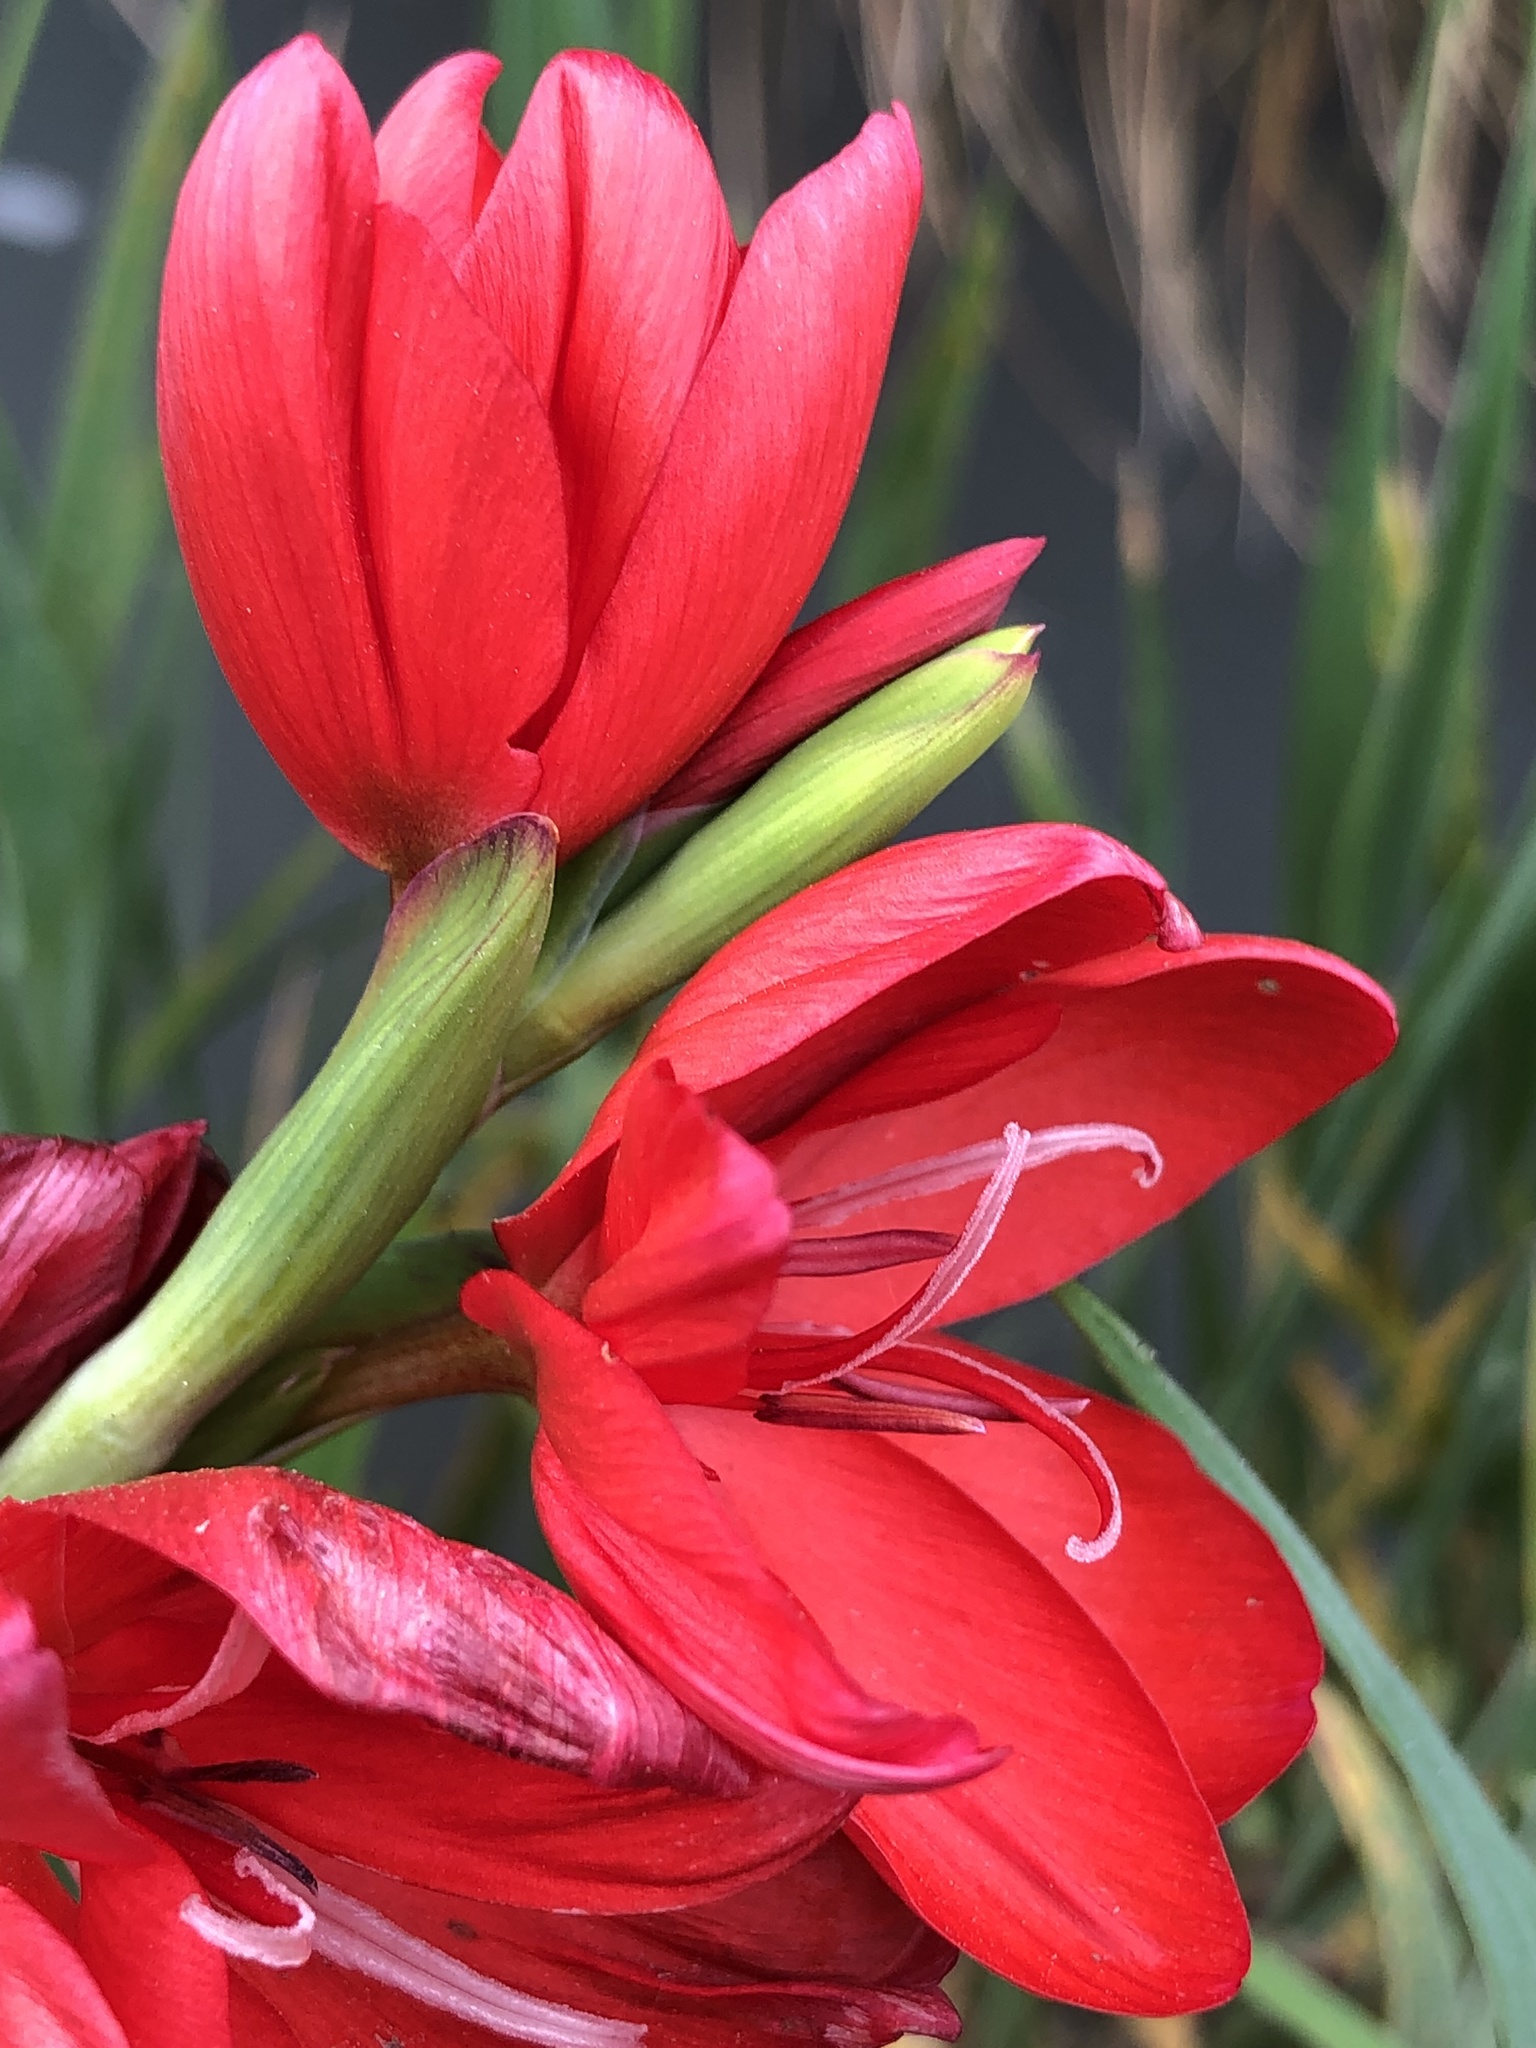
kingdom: Plantae
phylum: Tracheophyta
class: Liliopsida
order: Asparagales
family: Iridaceae
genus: Hesperantha
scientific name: Hesperantha coccinea
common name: River-lily
